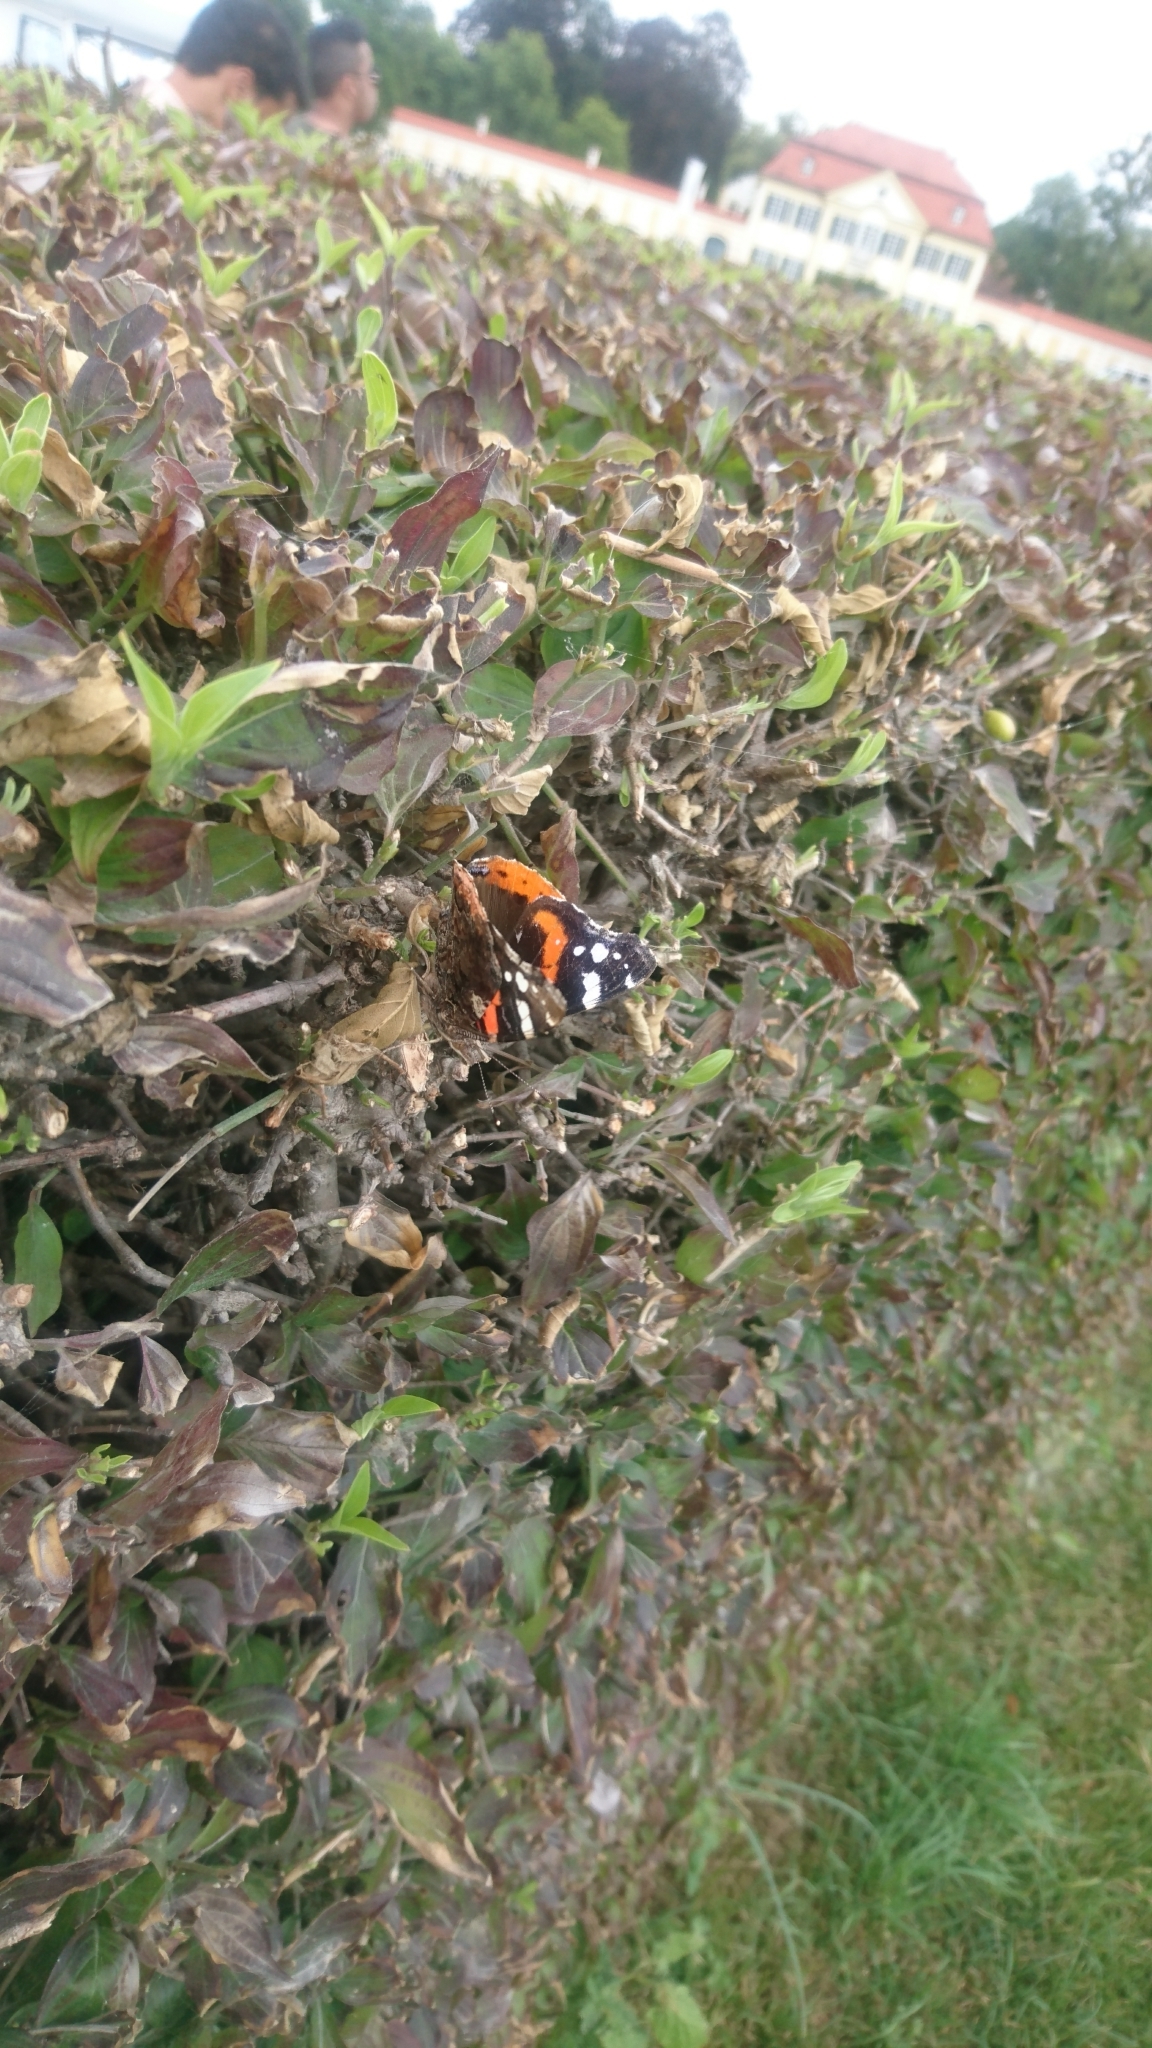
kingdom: Animalia
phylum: Arthropoda
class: Insecta
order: Lepidoptera
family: Nymphalidae
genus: Vanessa
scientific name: Vanessa atalanta
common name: Red admiral
